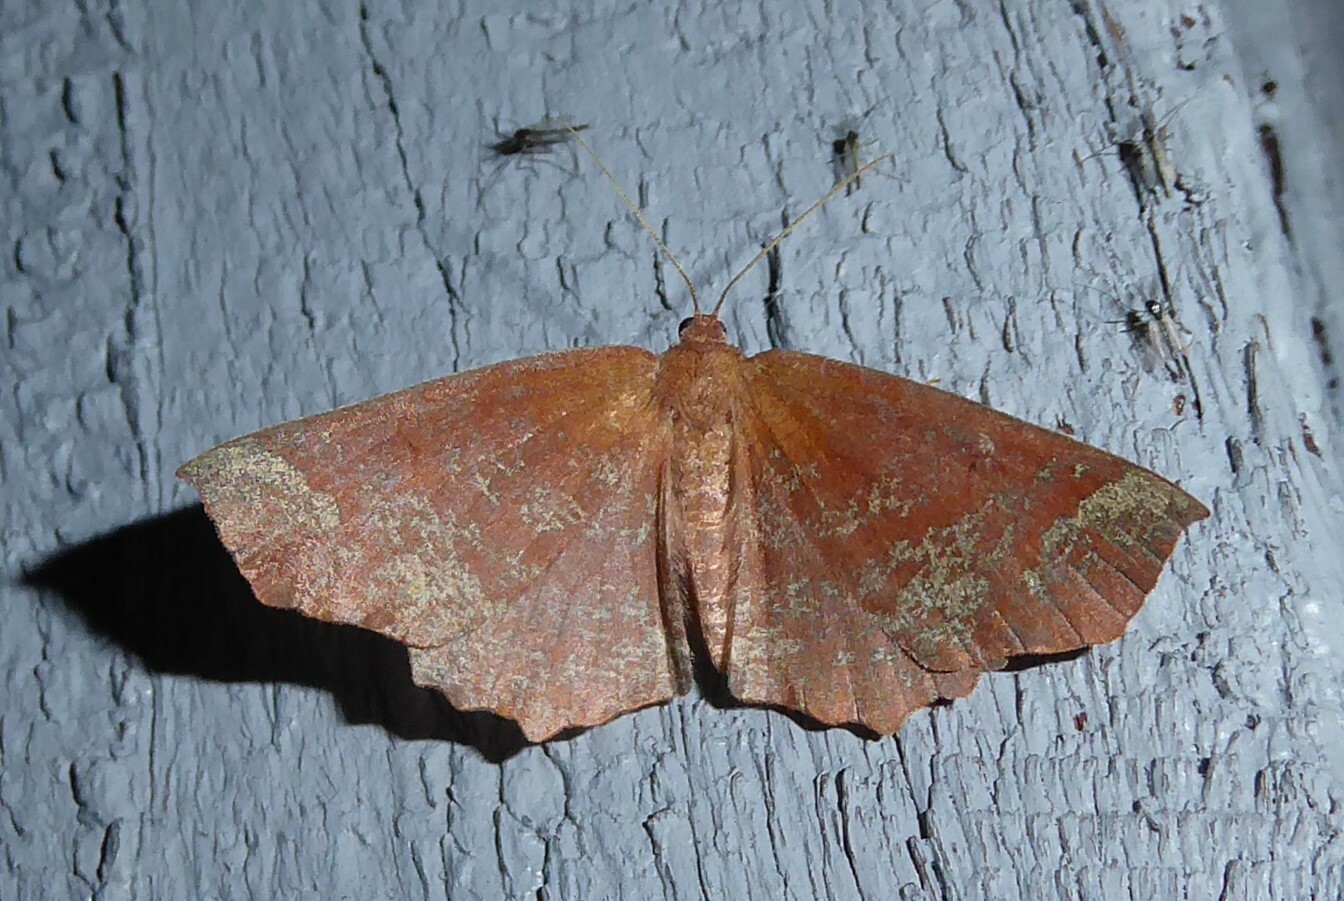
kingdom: Animalia
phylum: Arthropoda
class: Insecta
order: Lepidoptera
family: Geometridae
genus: Xyridacma
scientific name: Xyridacma ustaria
